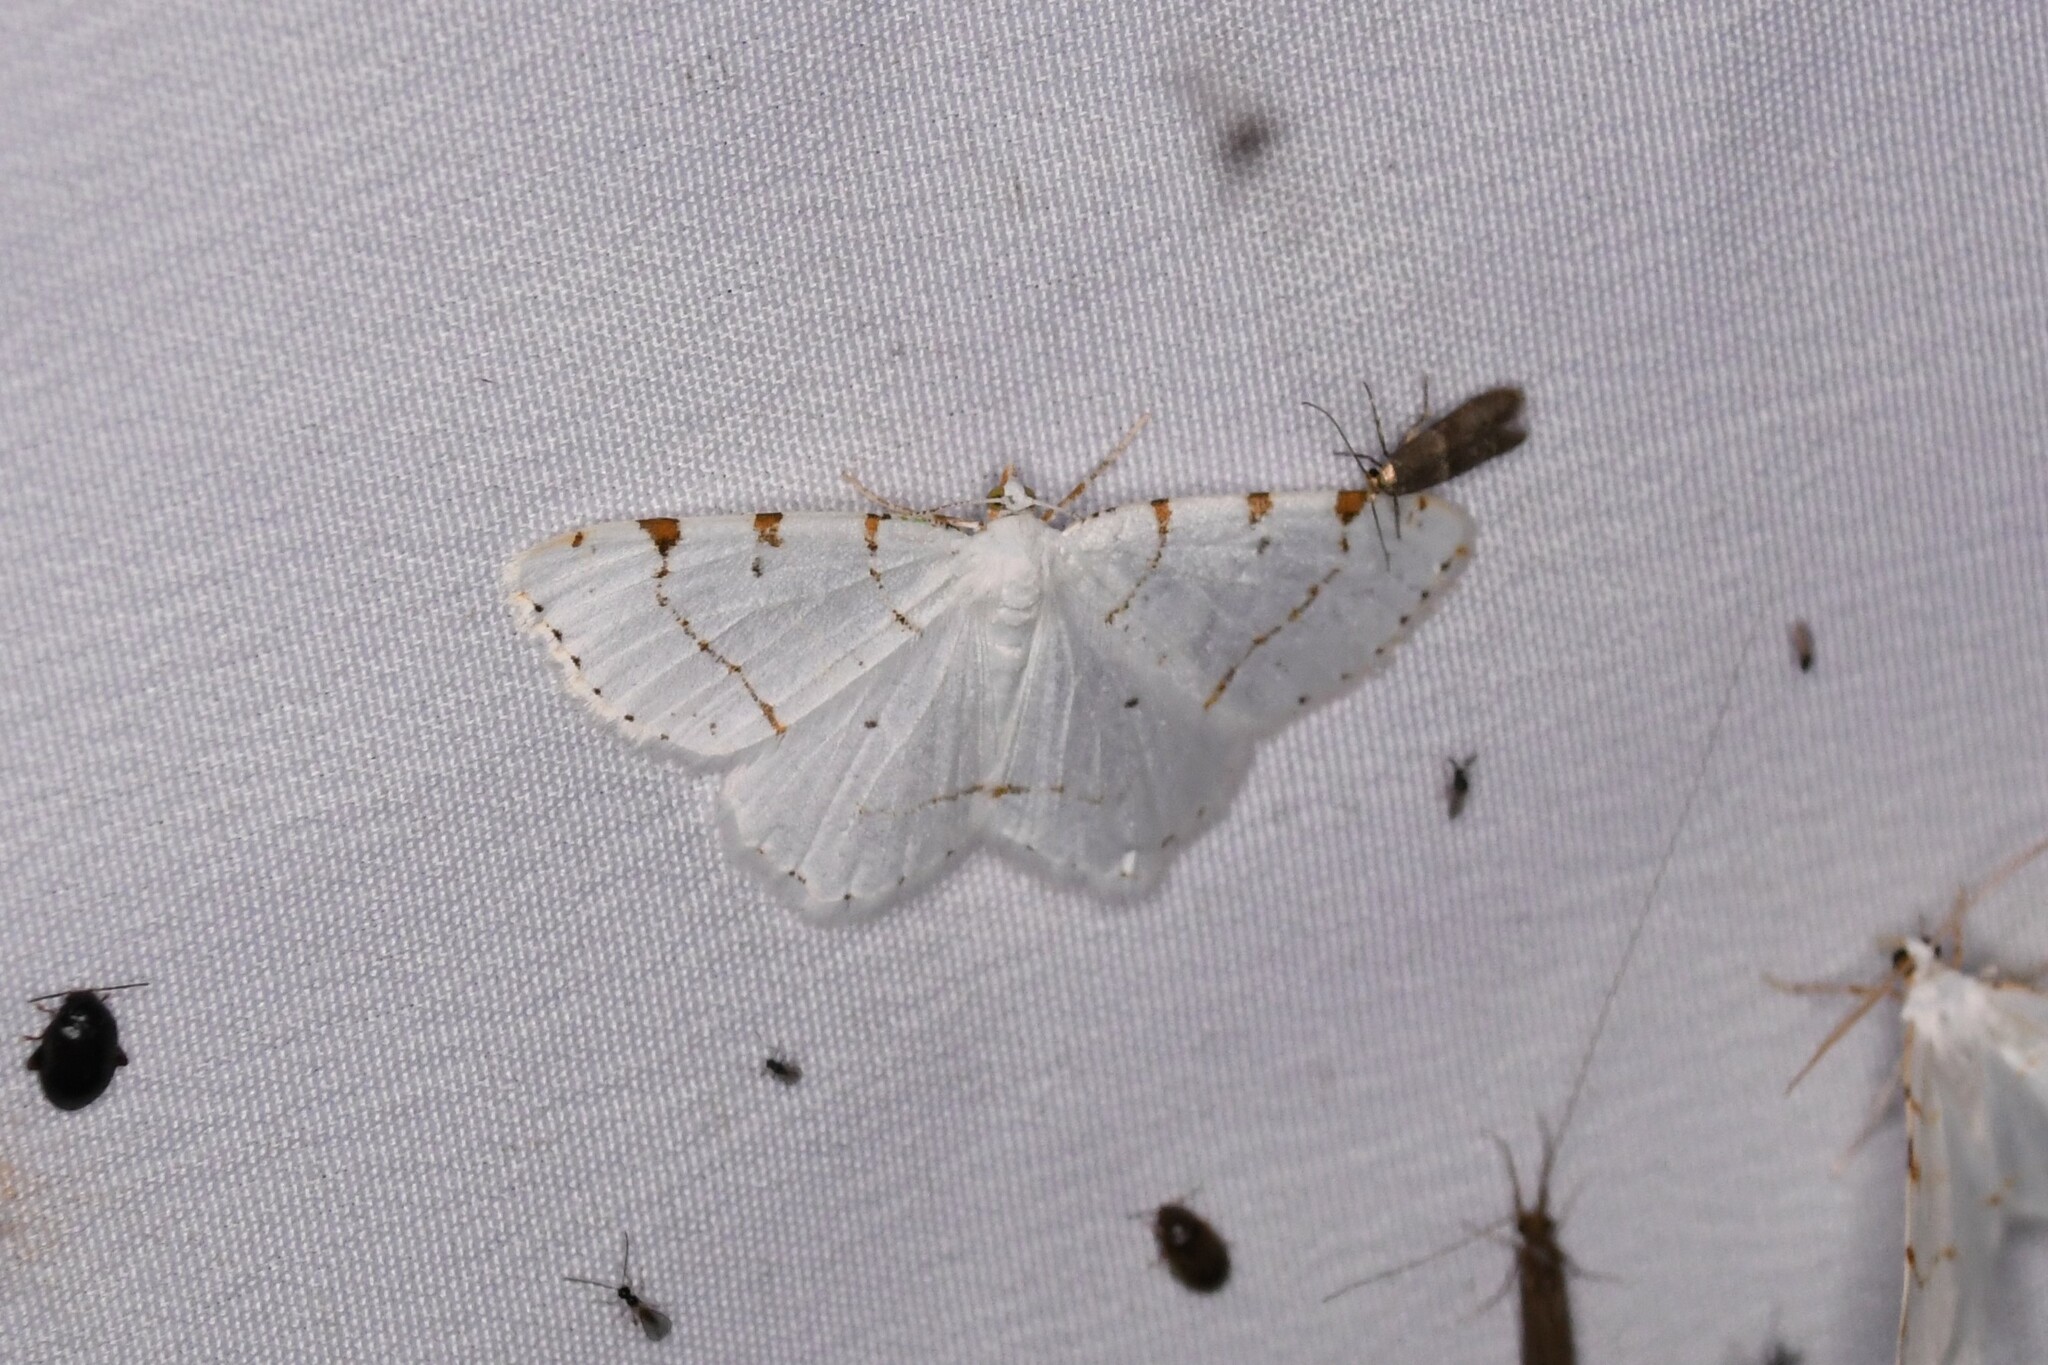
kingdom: Animalia
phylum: Arthropoda
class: Insecta
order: Lepidoptera
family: Geometridae
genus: Macaria
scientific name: Macaria pustularia
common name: Lesser maple spanworm moth
